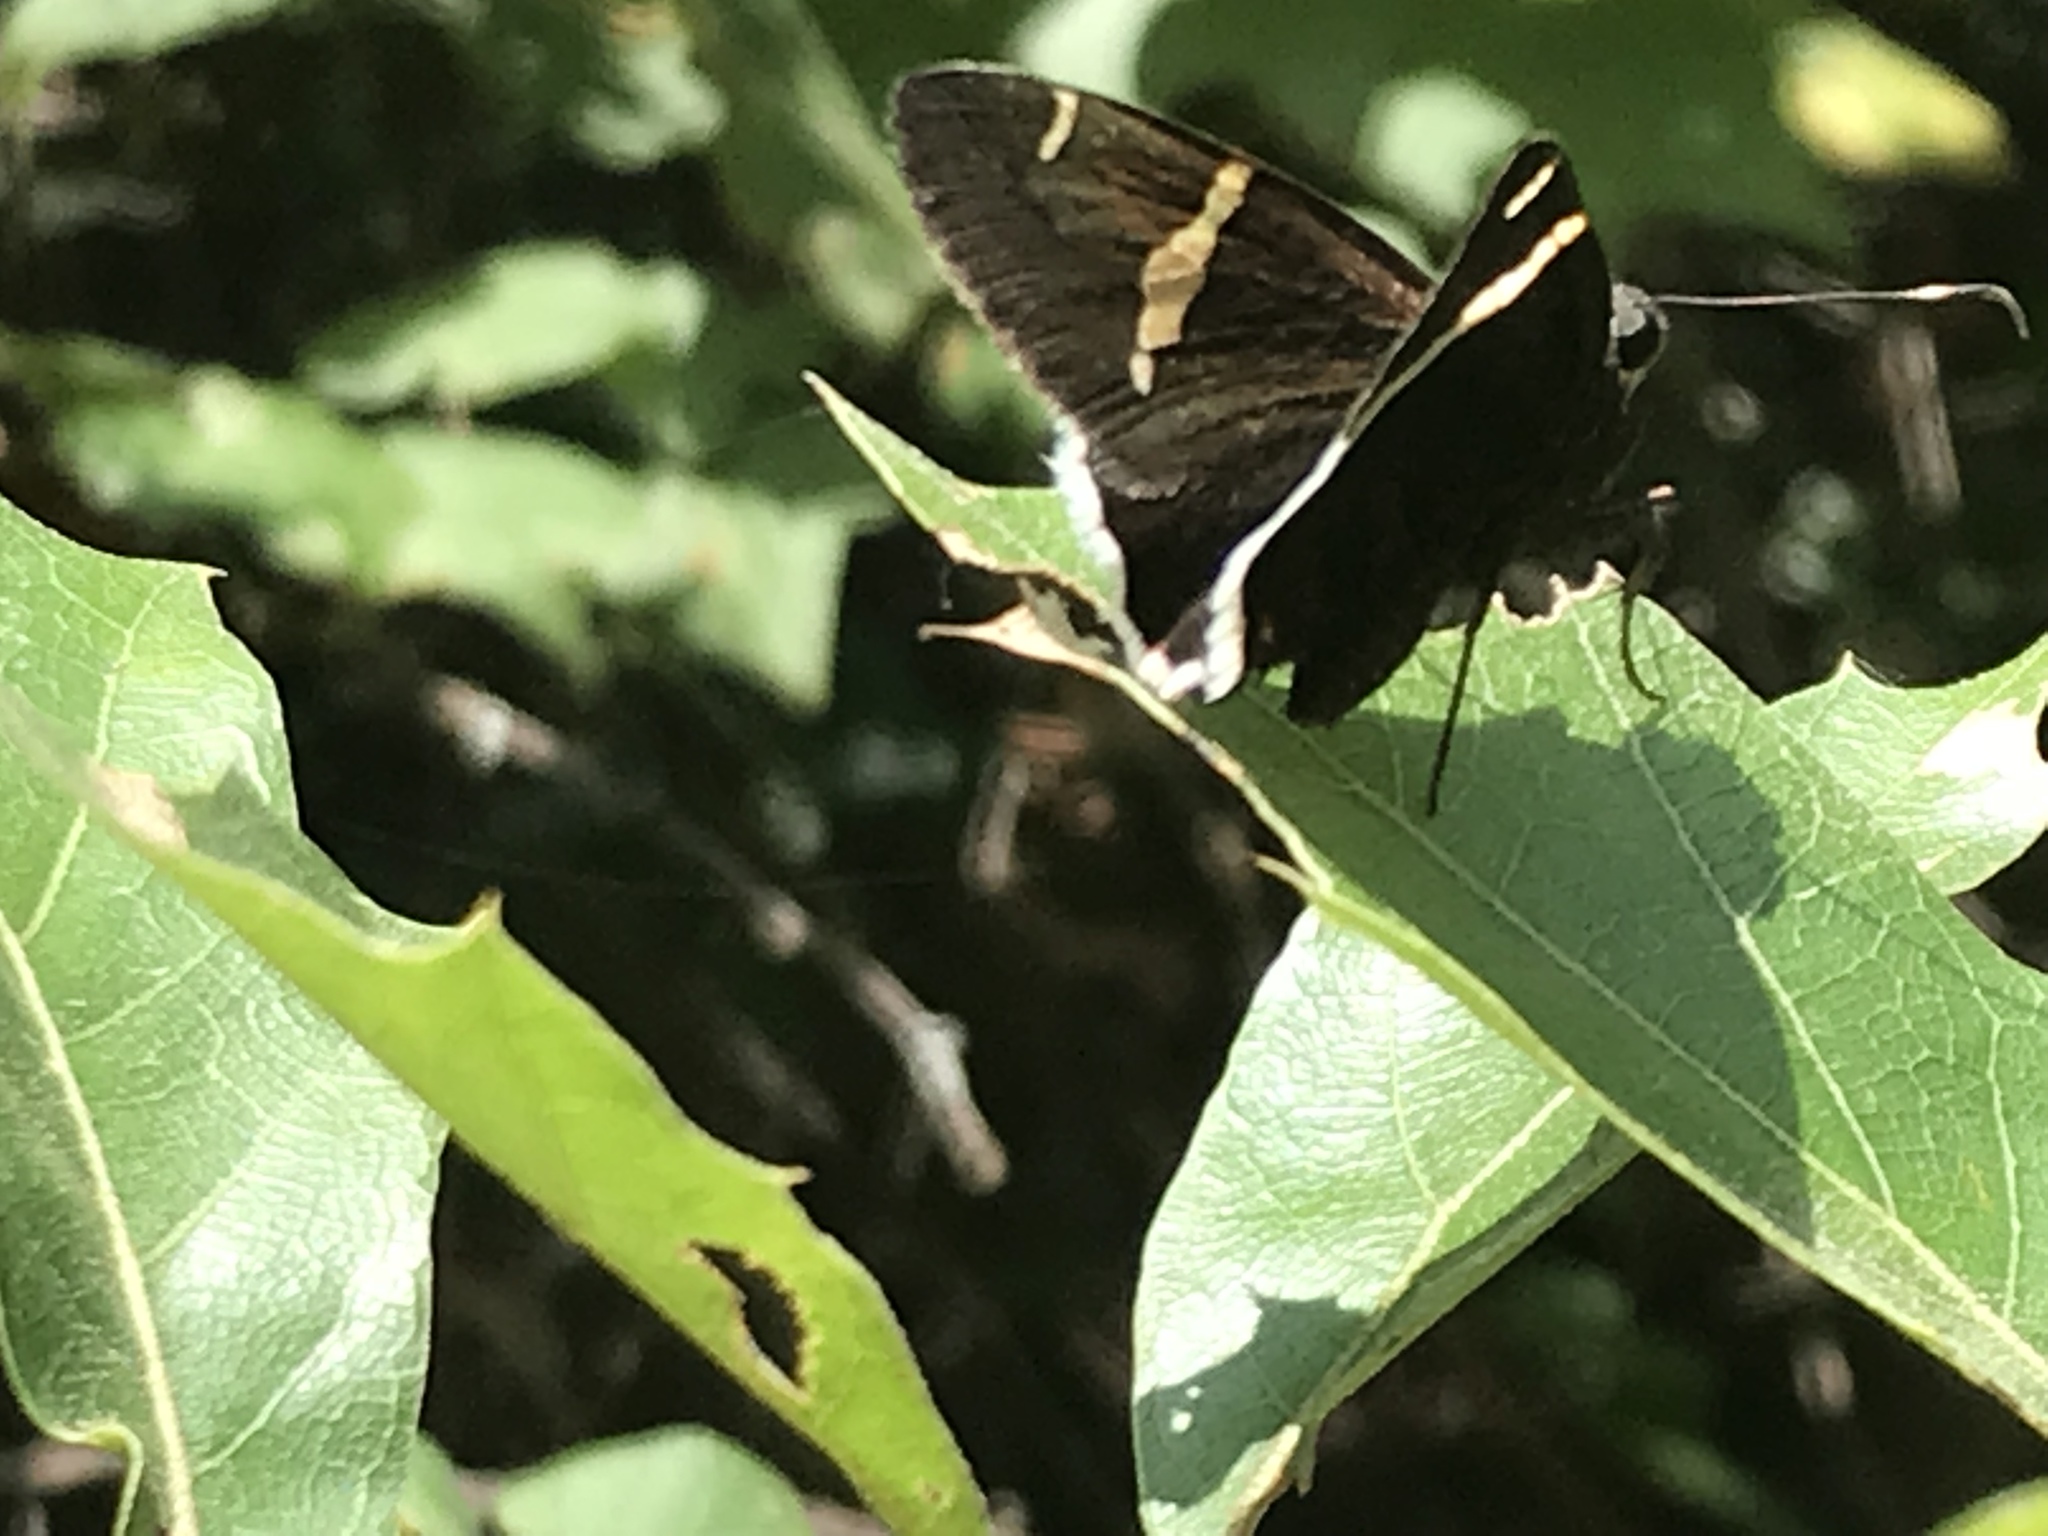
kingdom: Animalia
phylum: Arthropoda
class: Insecta
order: Lepidoptera
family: Hesperiidae
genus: Thorybes
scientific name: Thorybes cincta
